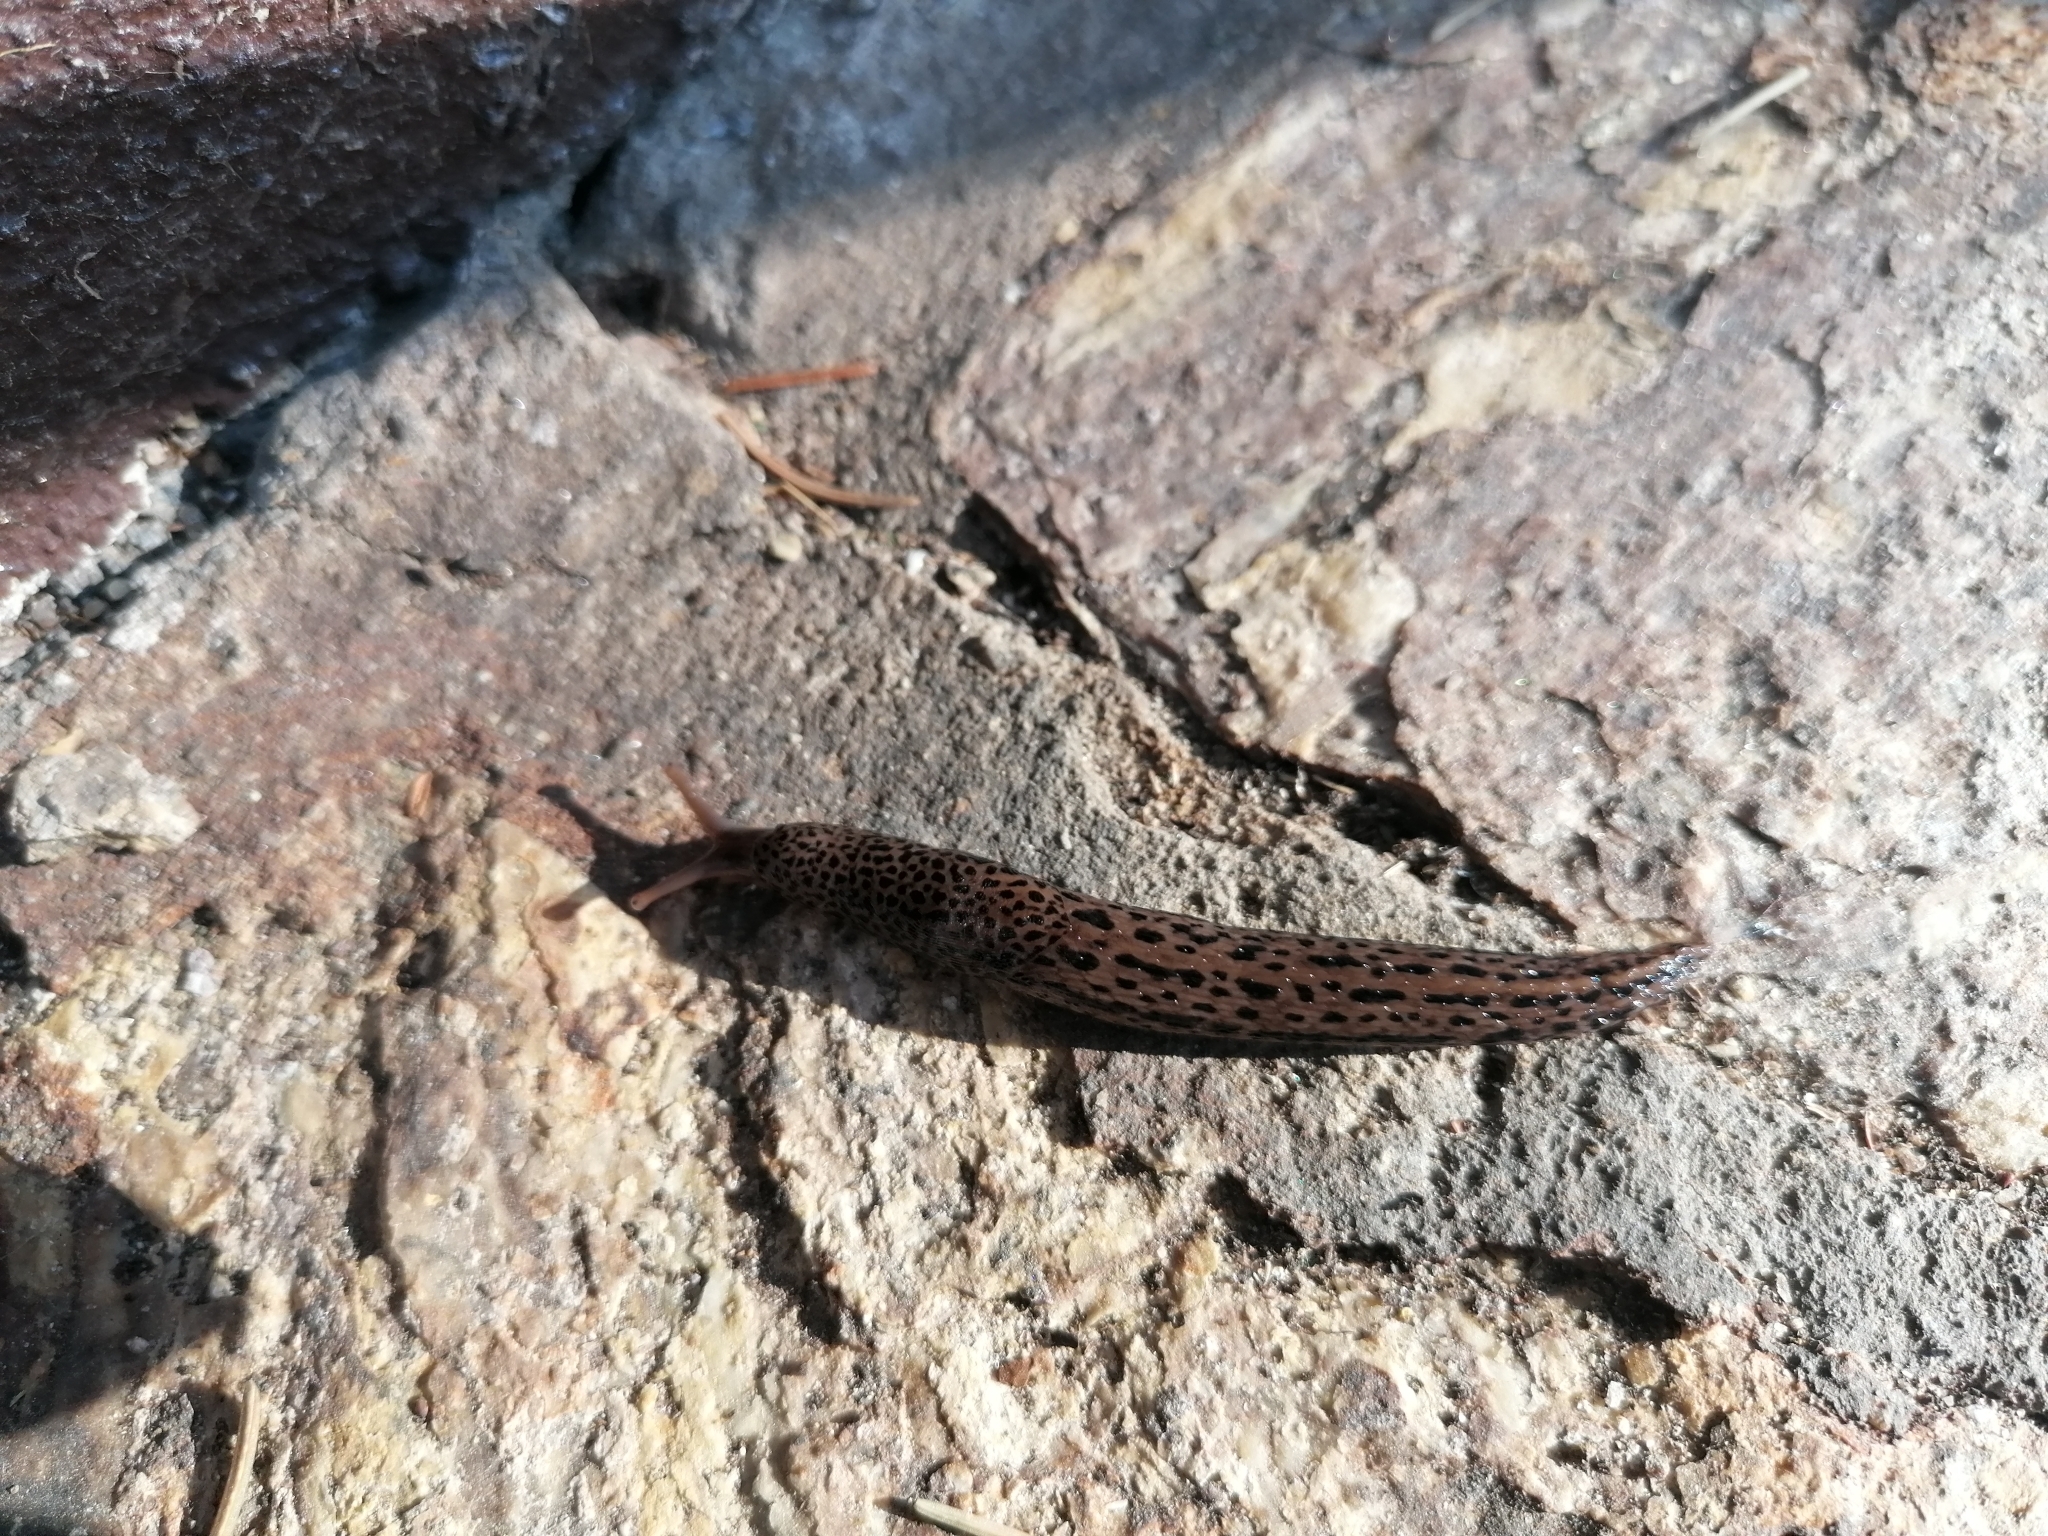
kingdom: Animalia
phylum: Mollusca
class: Gastropoda
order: Stylommatophora
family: Limacidae
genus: Limax
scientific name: Limax maximus
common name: Great grey slug
